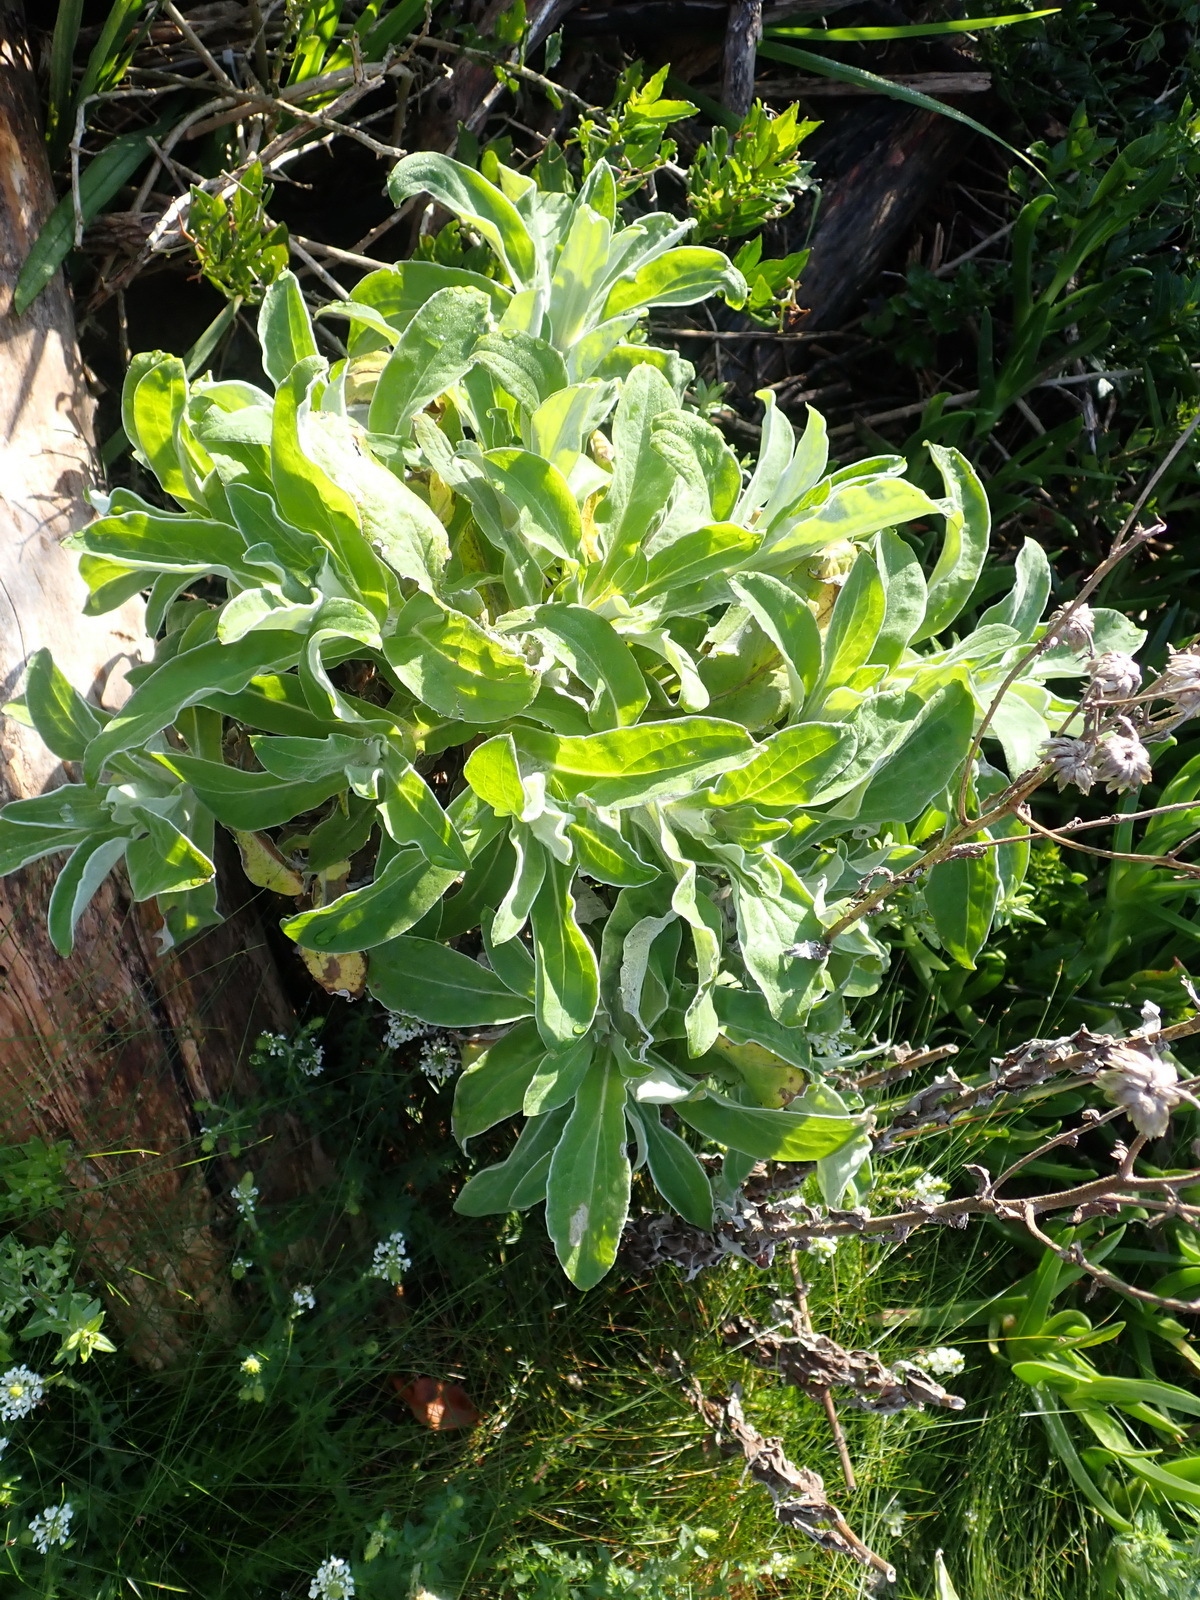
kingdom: Plantae
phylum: Tracheophyta
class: Magnoliopsida
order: Asterales
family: Asteraceae
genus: Helichrysum
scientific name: Helichrysum foetidum
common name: Stinking everlasting
